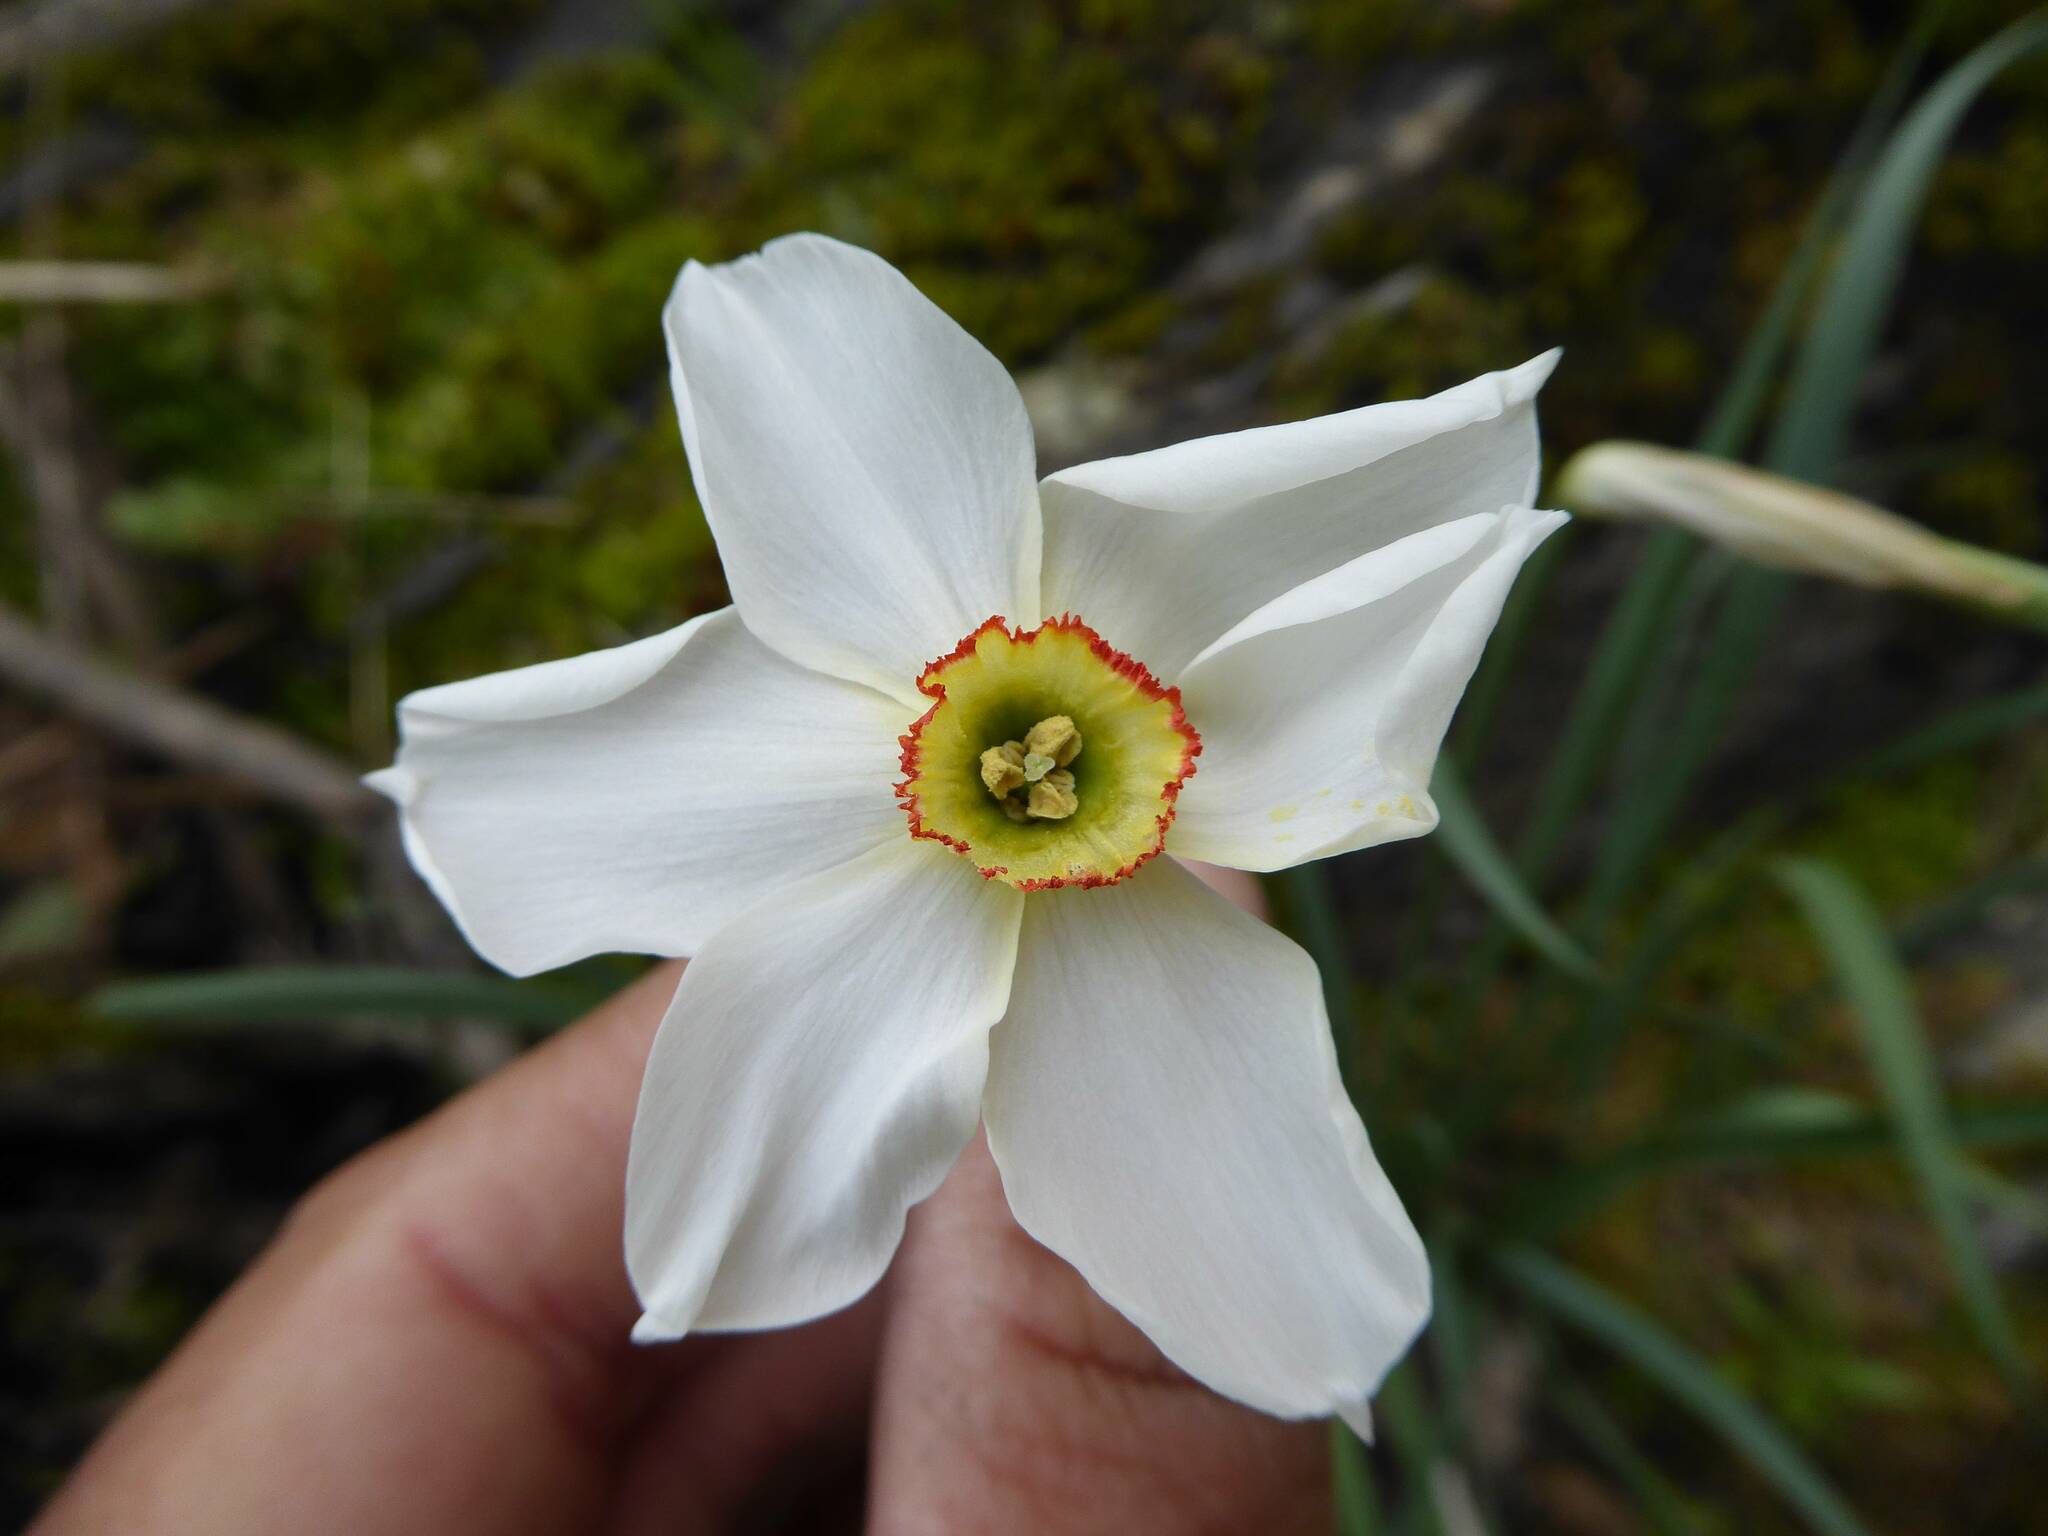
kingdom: Plantae
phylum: Tracheophyta
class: Liliopsida
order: Asparagales
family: Amaryllidaceae
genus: Narcissus
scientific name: Narcissus poeticus
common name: Pheasant's-eye daffodil
